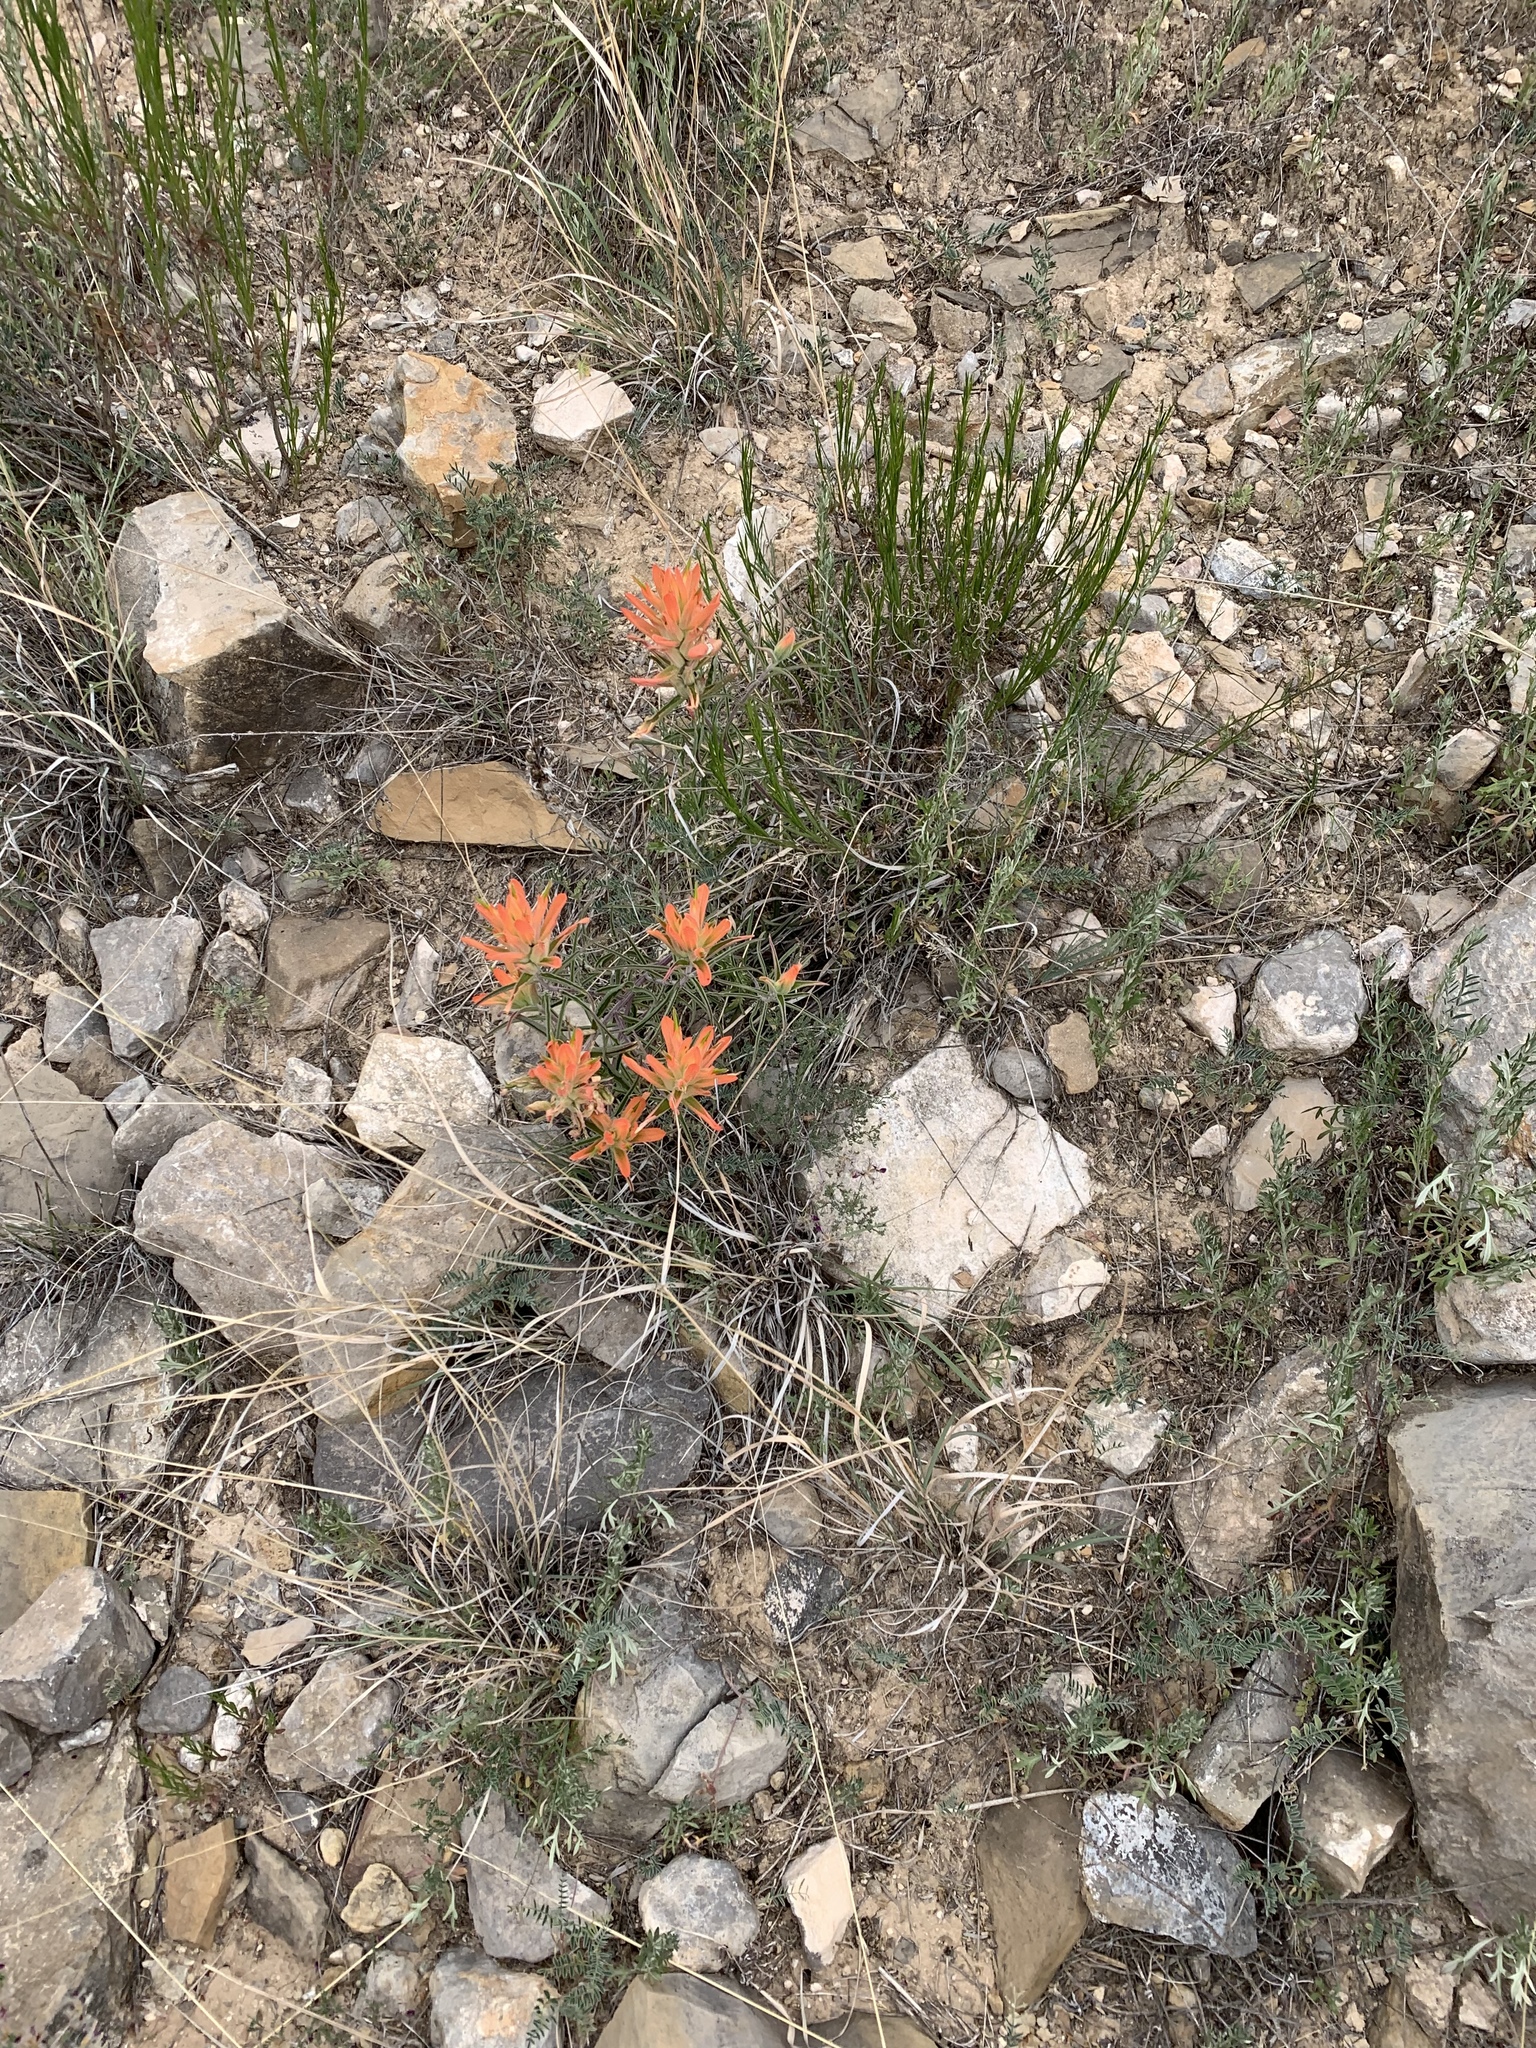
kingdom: Plantae
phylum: Tracheophyta
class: Magnoliopsida
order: Lamiales
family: Orobanchaceae
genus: Castilleja
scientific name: Castilleja integra
